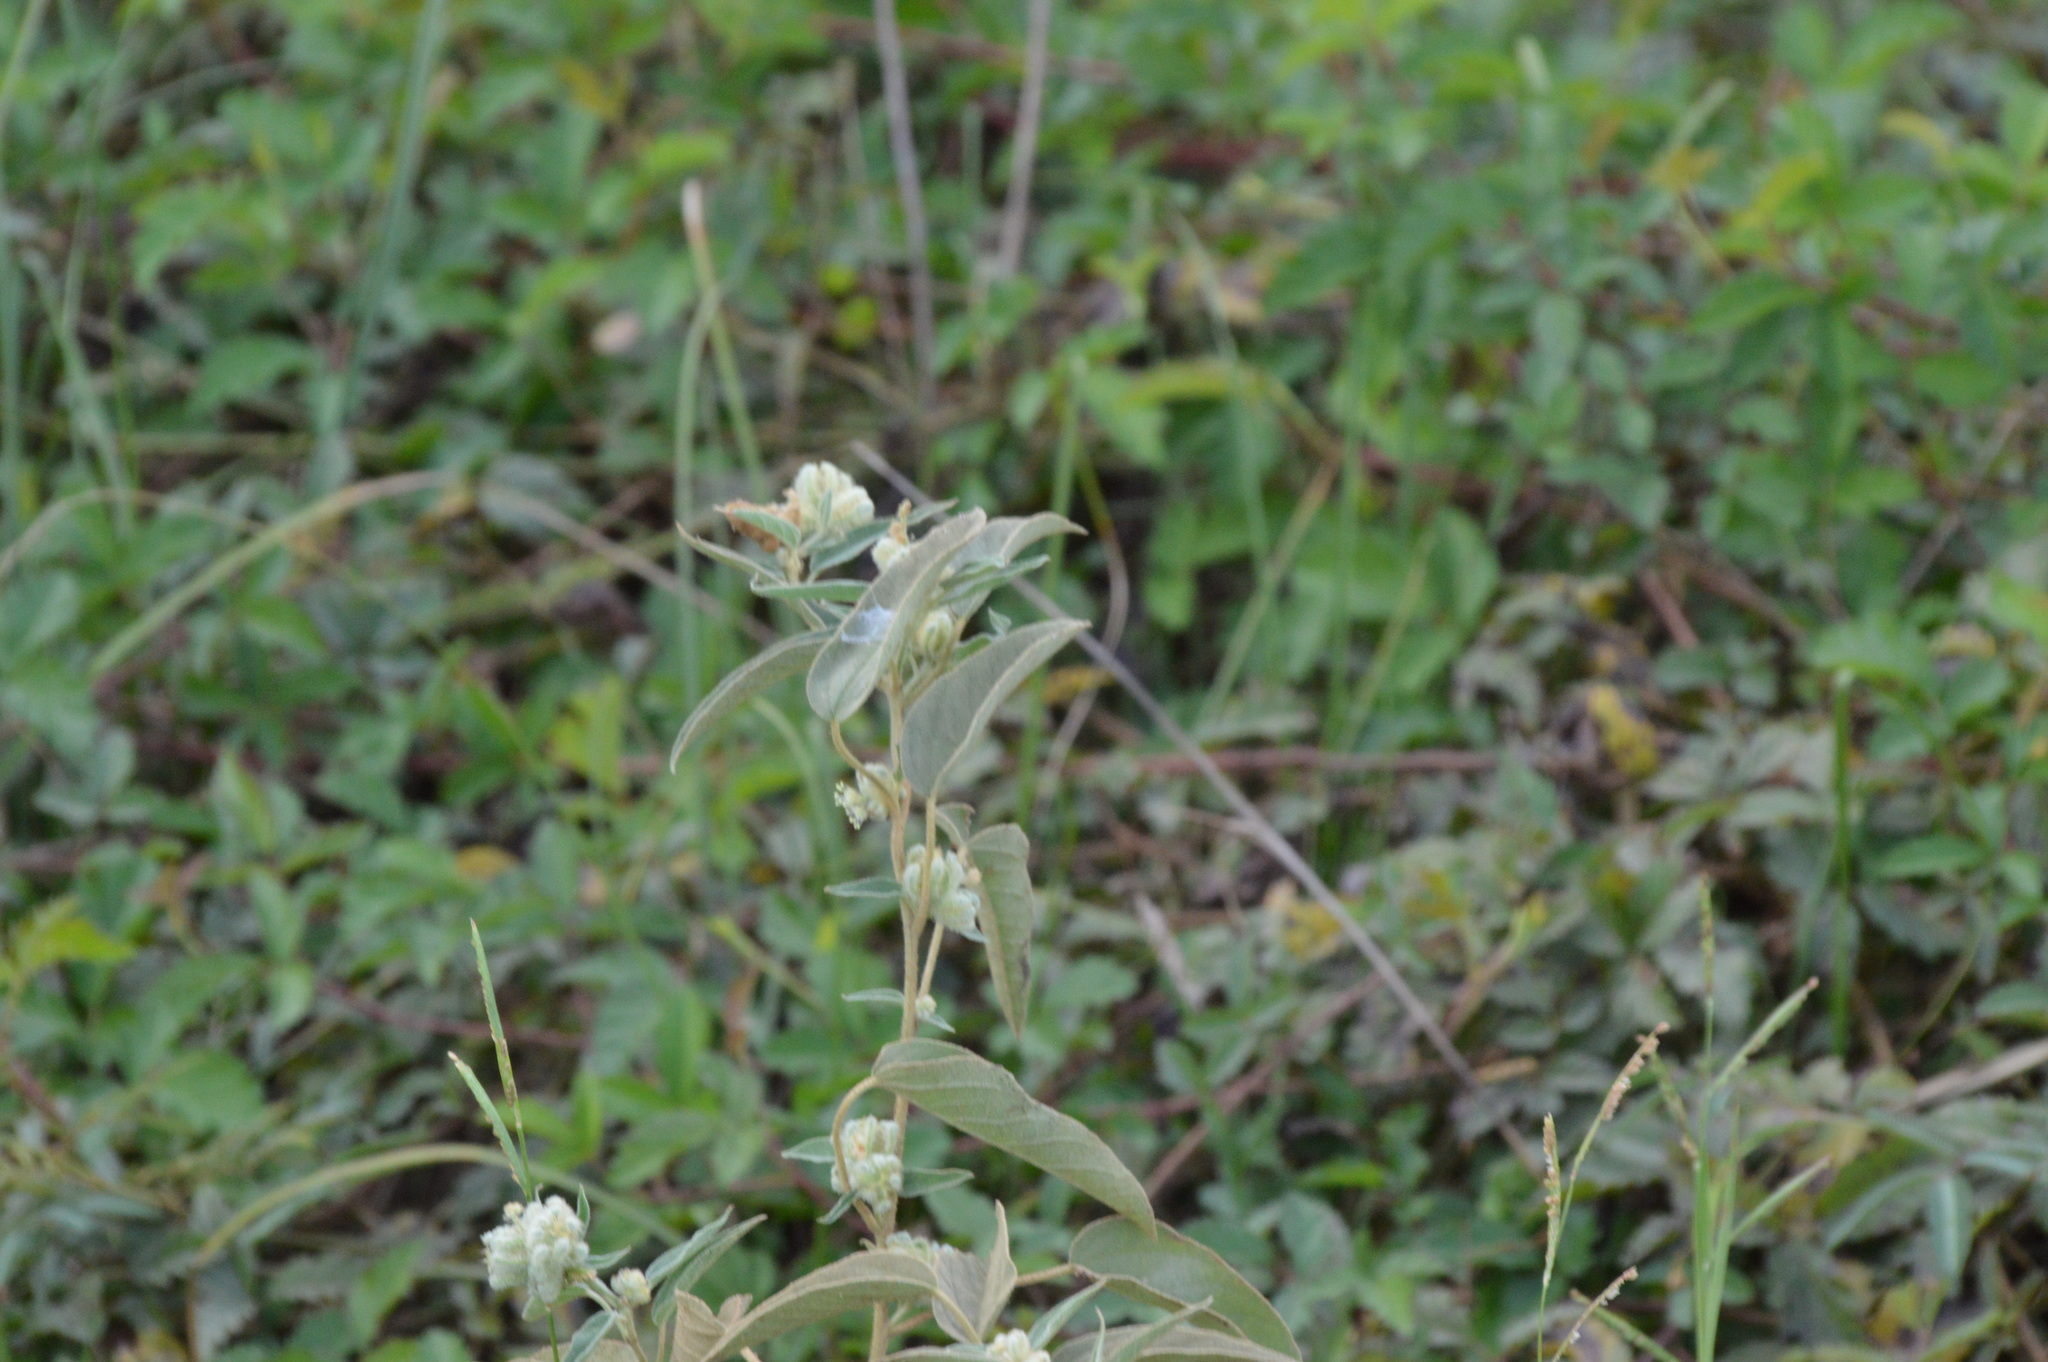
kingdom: Plantae
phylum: Tracheophyta
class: Magnoliopsida
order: Malpighiales
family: Euphorbiaceae
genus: Croton
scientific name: Croton lindheimeri
